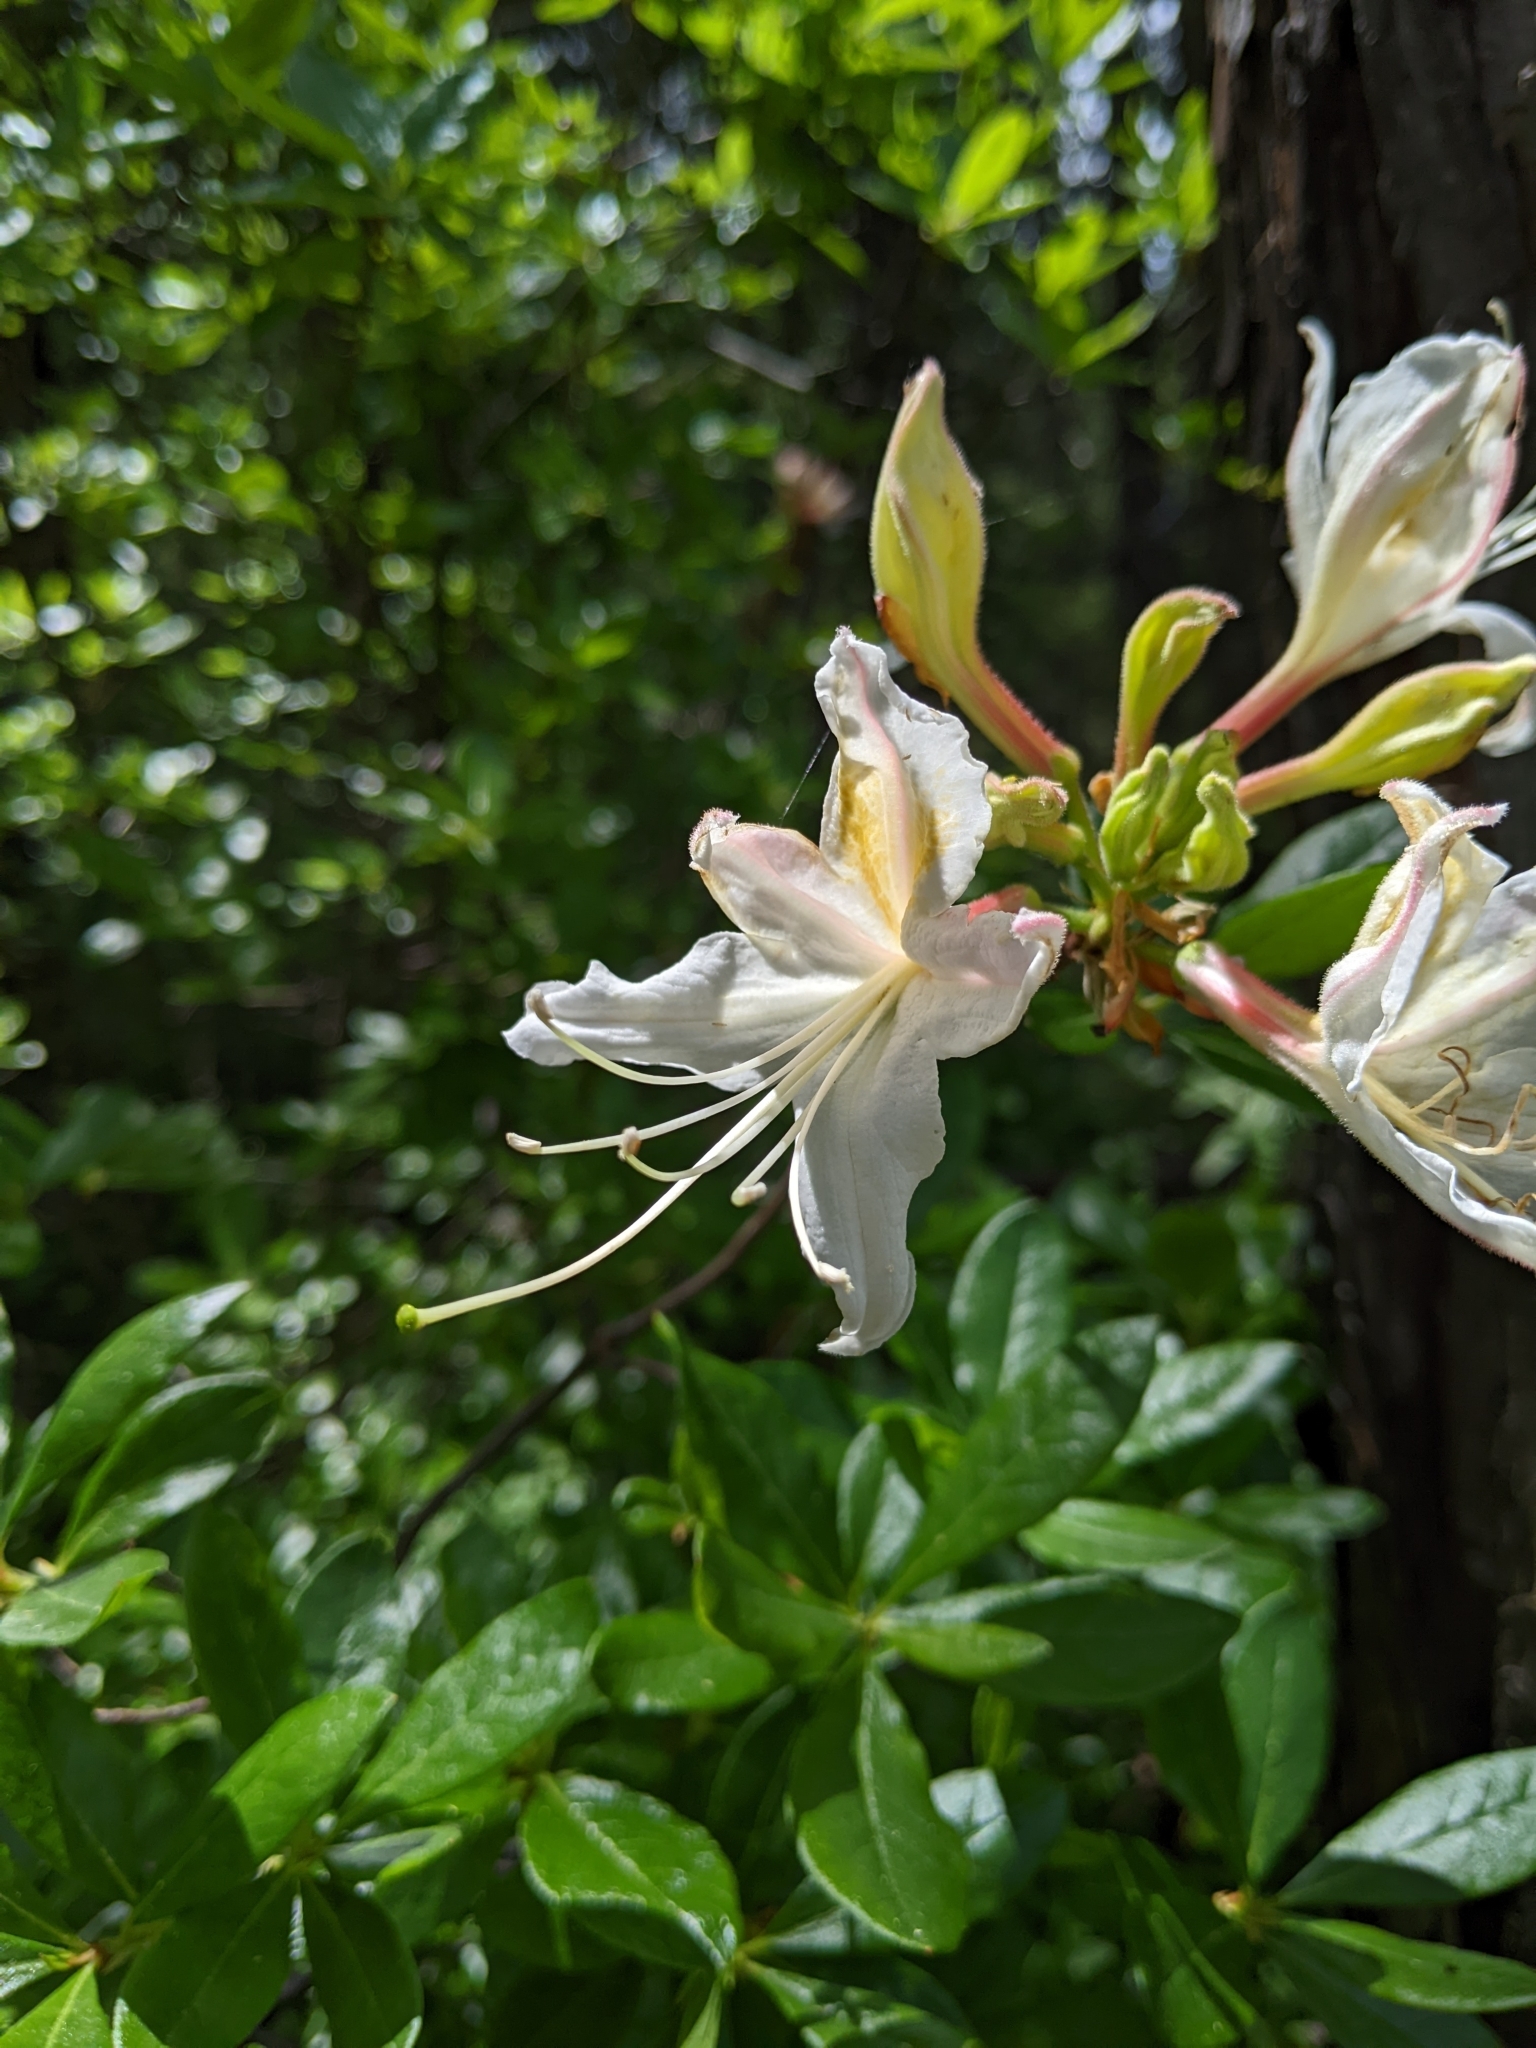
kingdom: Plantae
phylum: Tracheophyta
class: Magnoliopsida
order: Ericales
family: Ericaceae
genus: Rhododendron
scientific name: Rhododendron occidentale
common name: Western azalea
